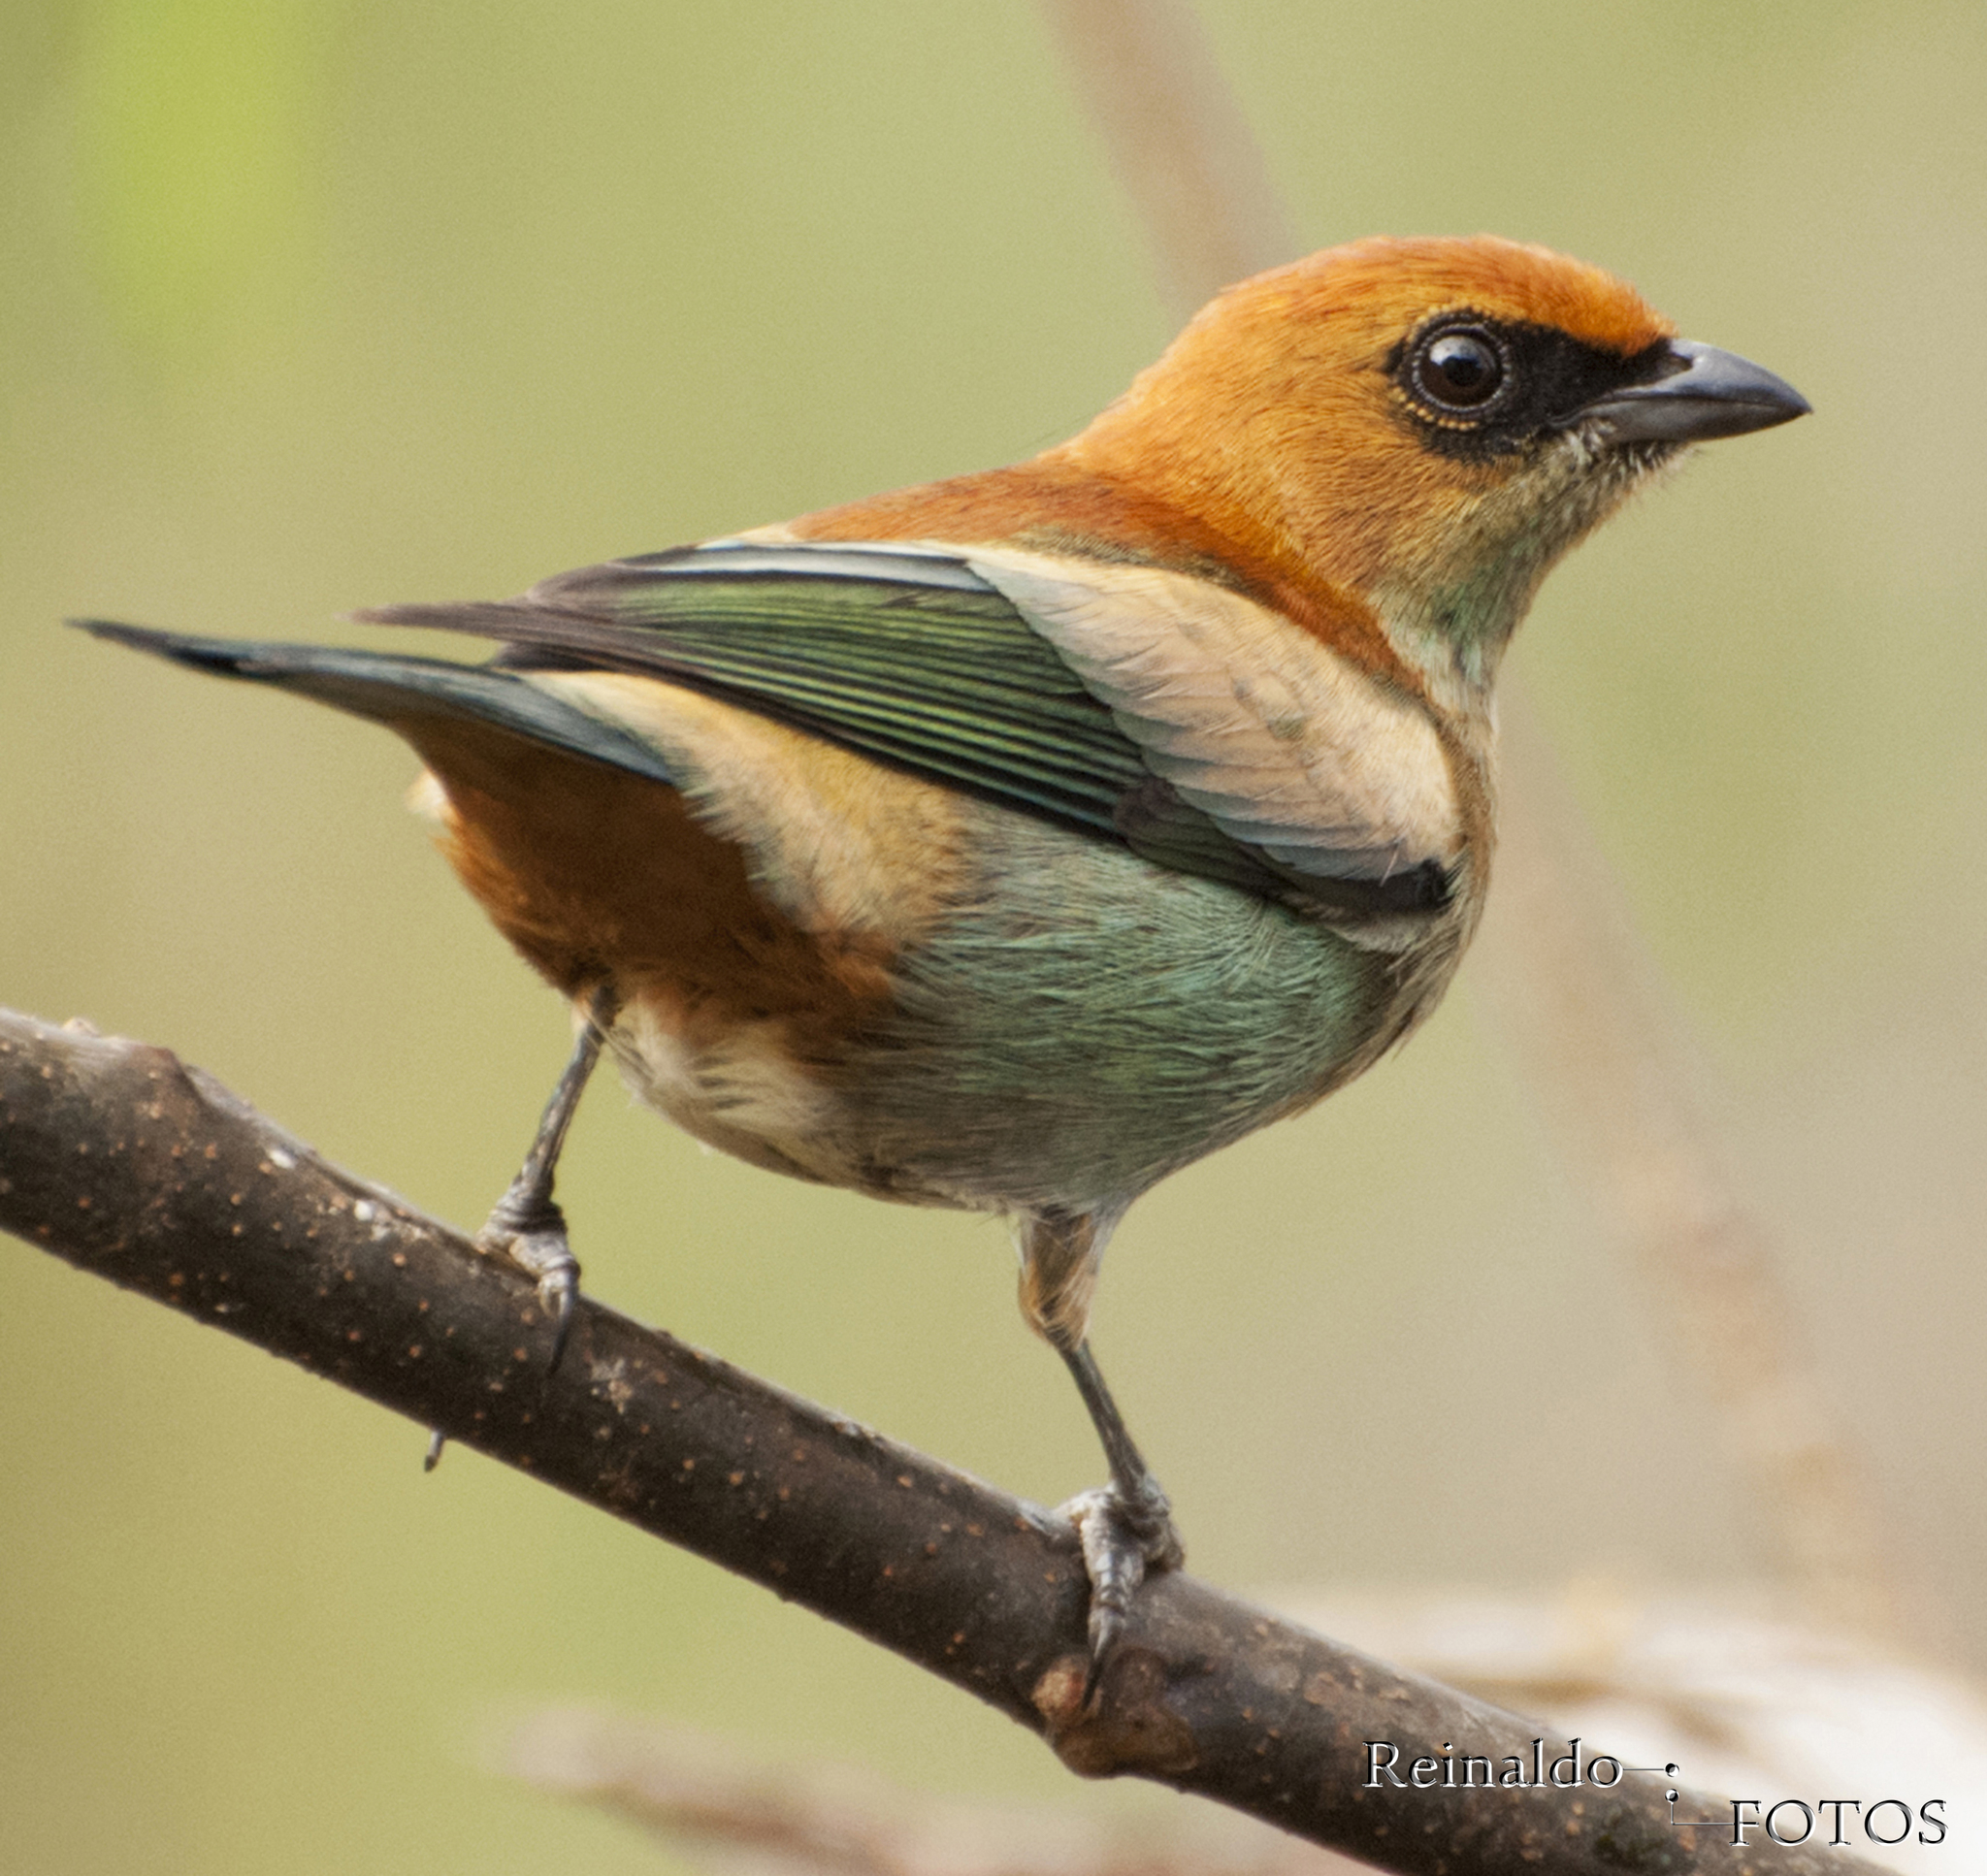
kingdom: Animalia
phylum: Chordata
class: Aves
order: Passeriformes
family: Thraupidae
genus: Stilpnia
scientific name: Stilpnia preciosa
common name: Chestnut-backed tanager
